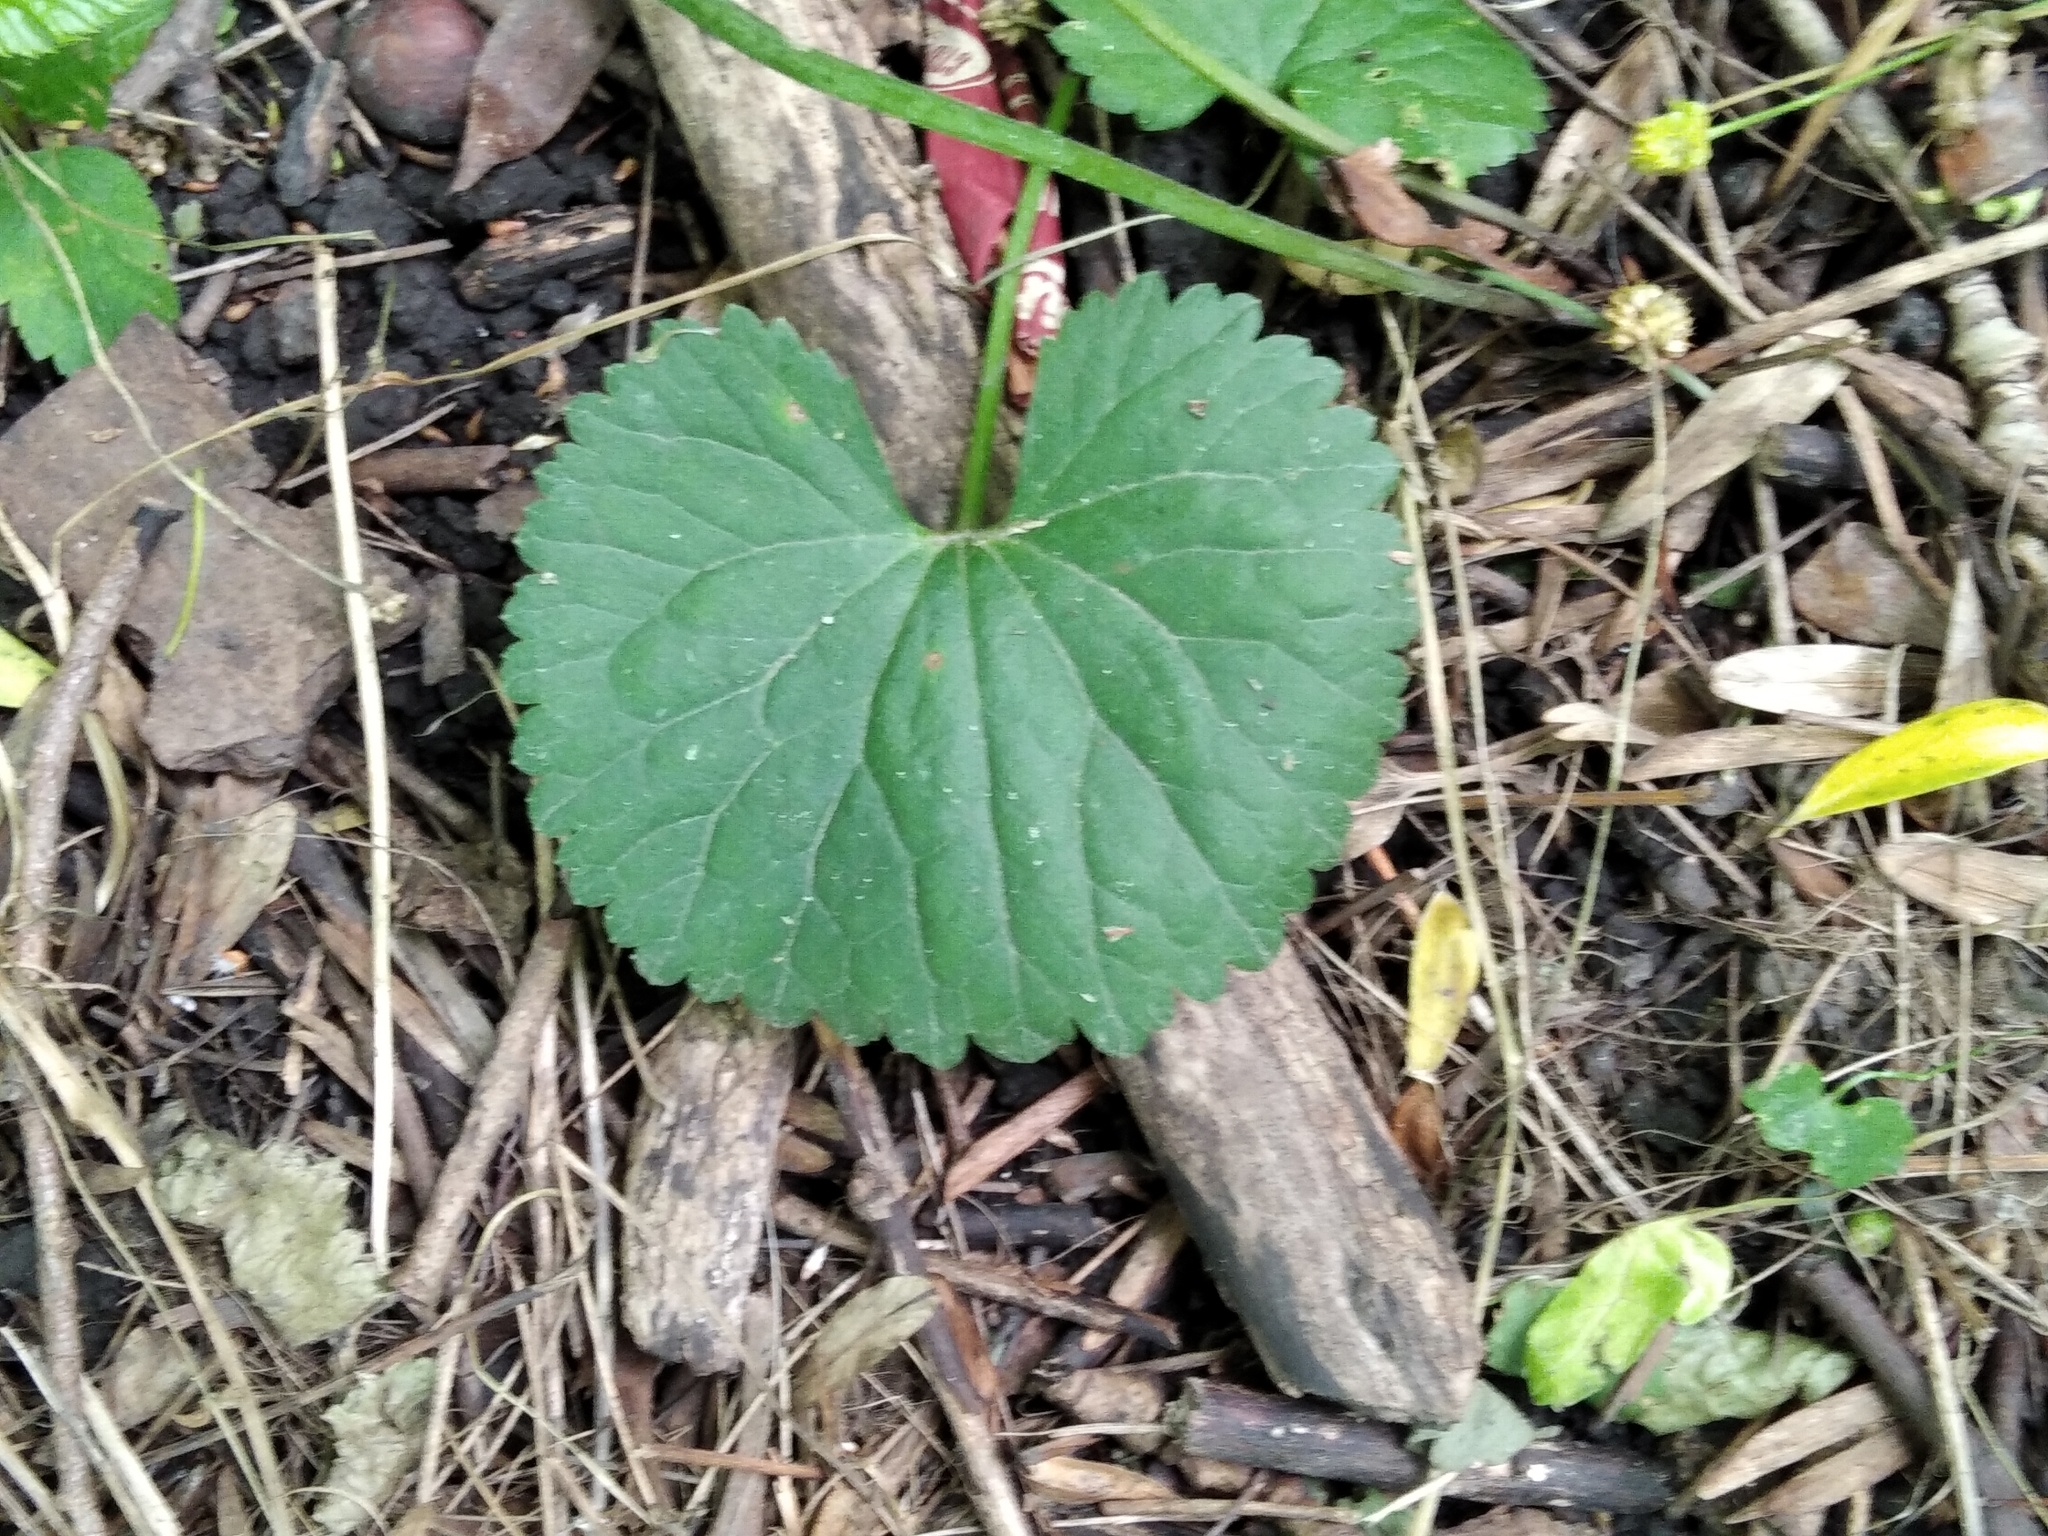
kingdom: Plantae
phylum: Tracheophyta
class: Magnoliopsida
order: Ranunculales
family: Ranunculaceae
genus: Ranunculus
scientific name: Ranunculus cassubicus
